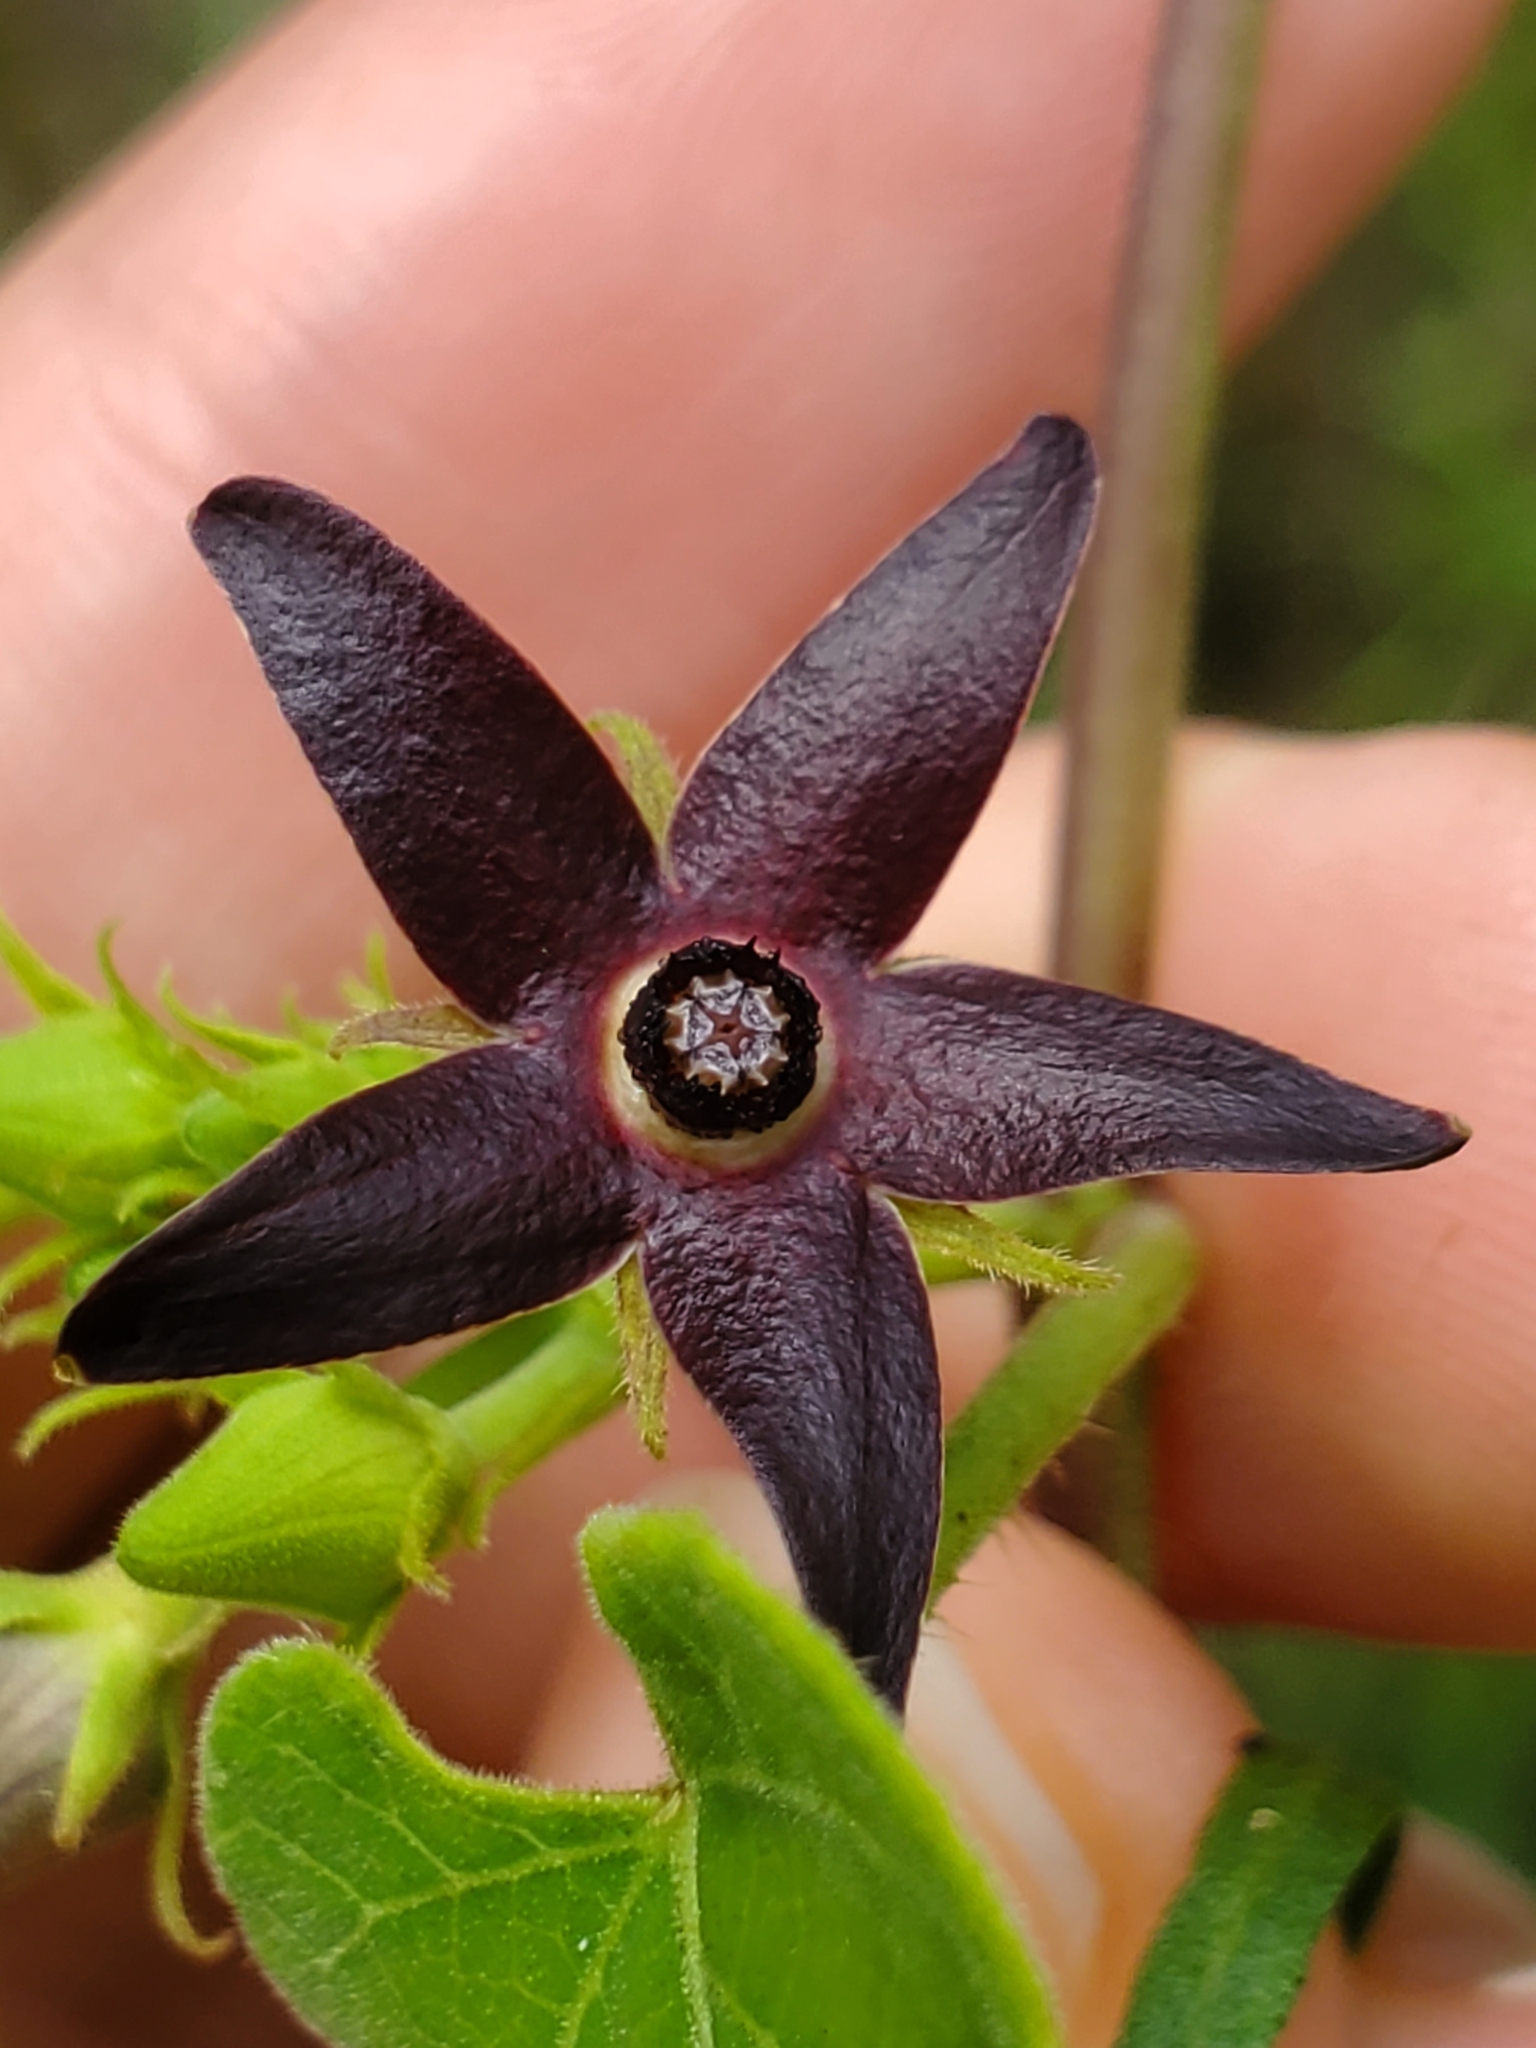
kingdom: Plantae
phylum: Tracheophyta
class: Magnoliopsida
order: Gentianales
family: Apocynaceae
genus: Matelea
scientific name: Matelea floridana
